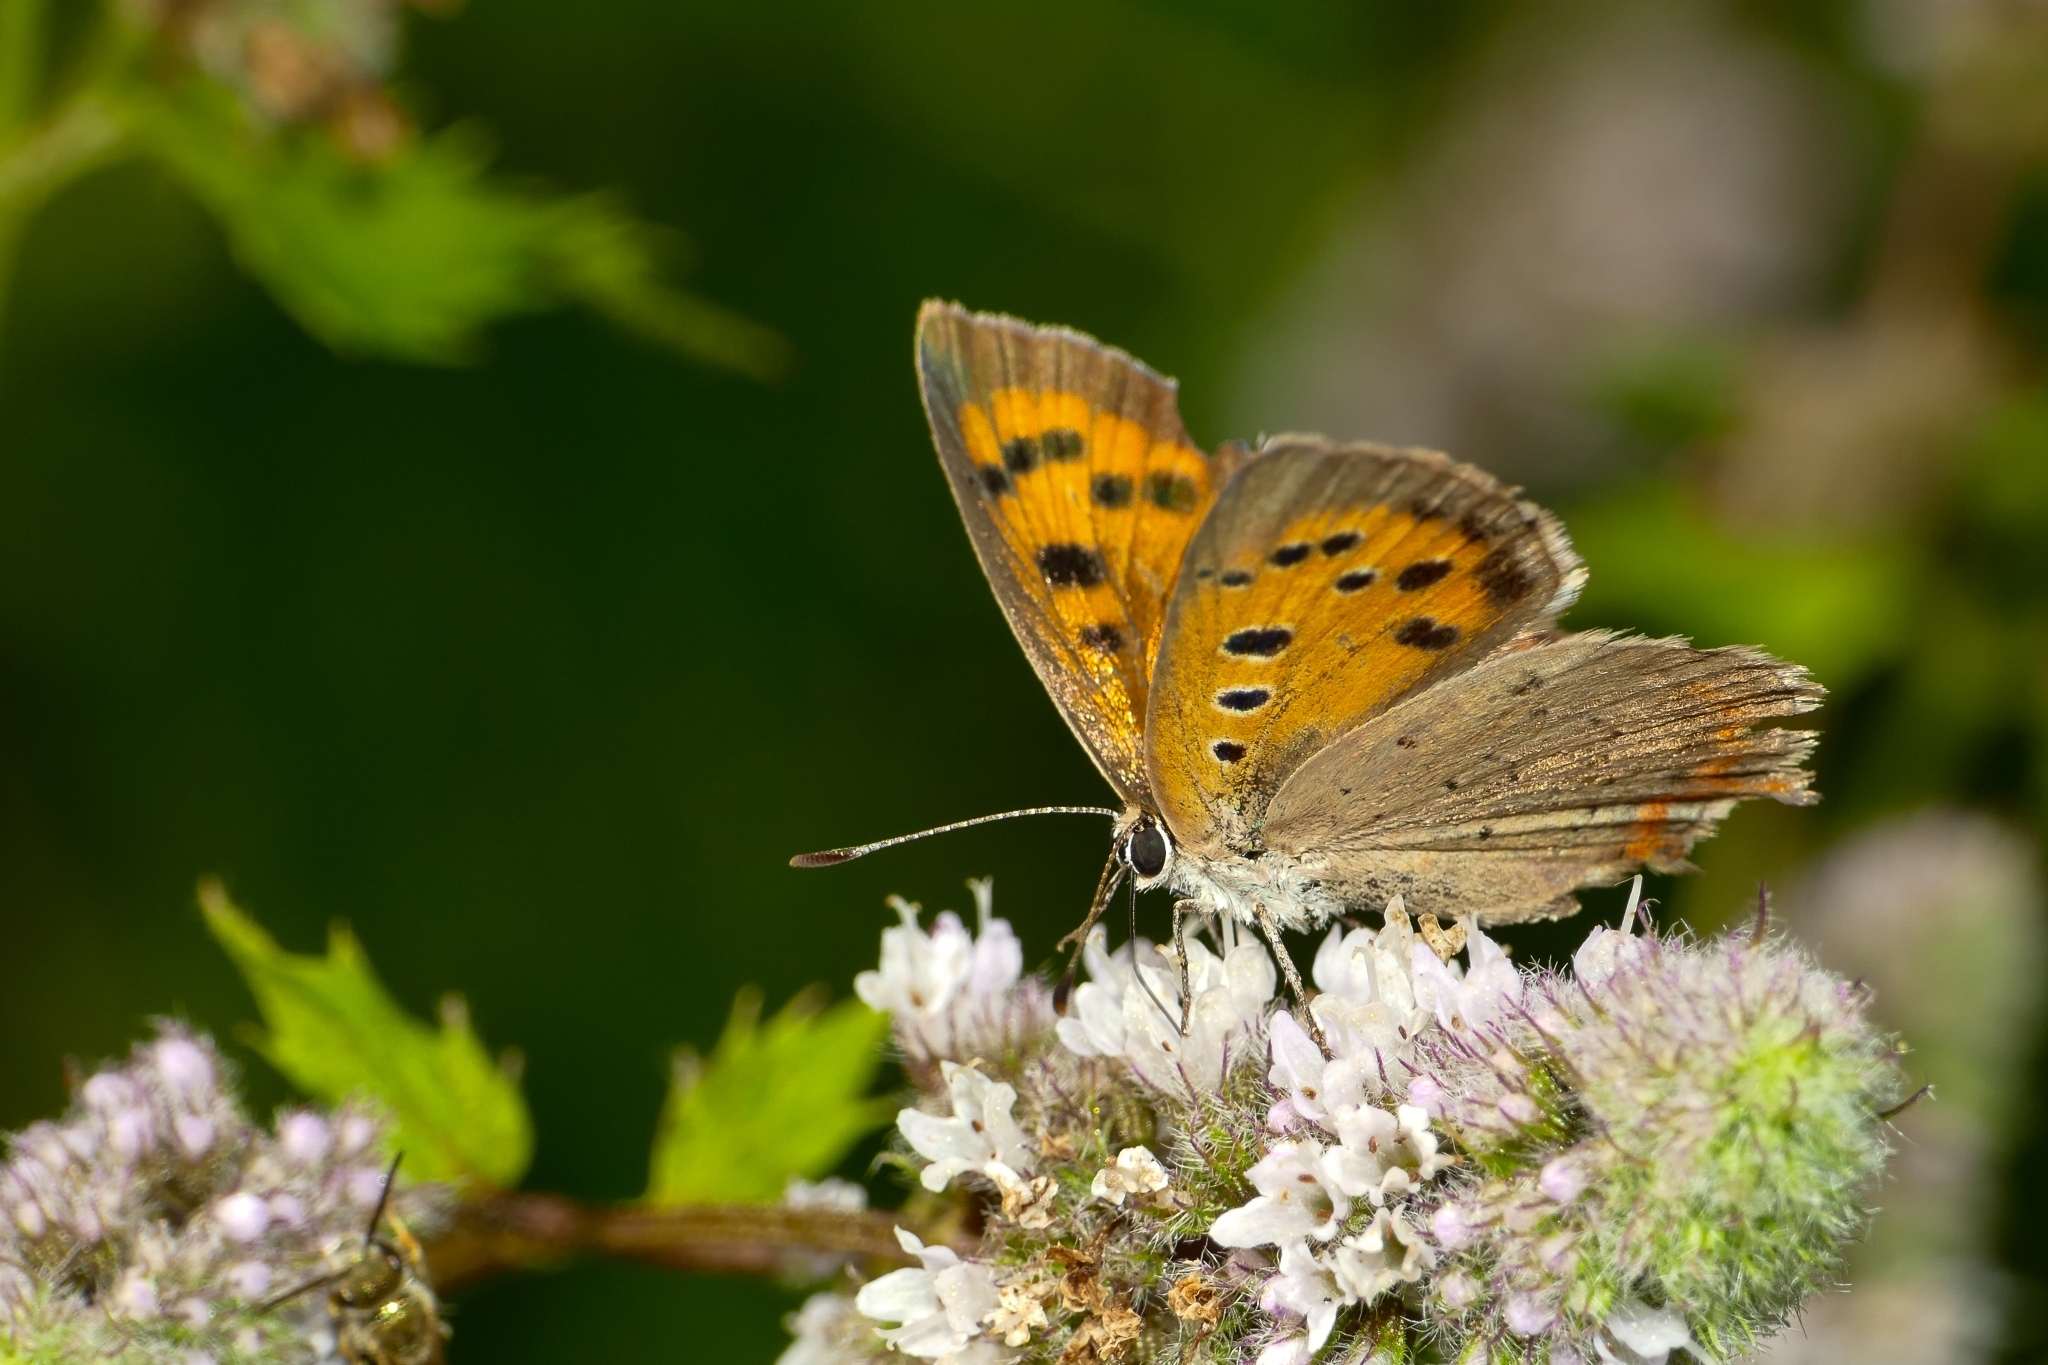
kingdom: Animalia
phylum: Arthropoda
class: Insecta
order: Lepidoptera
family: Lycaenidae
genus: Lycaena
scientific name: Lycaena phlaeas
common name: Small copper
